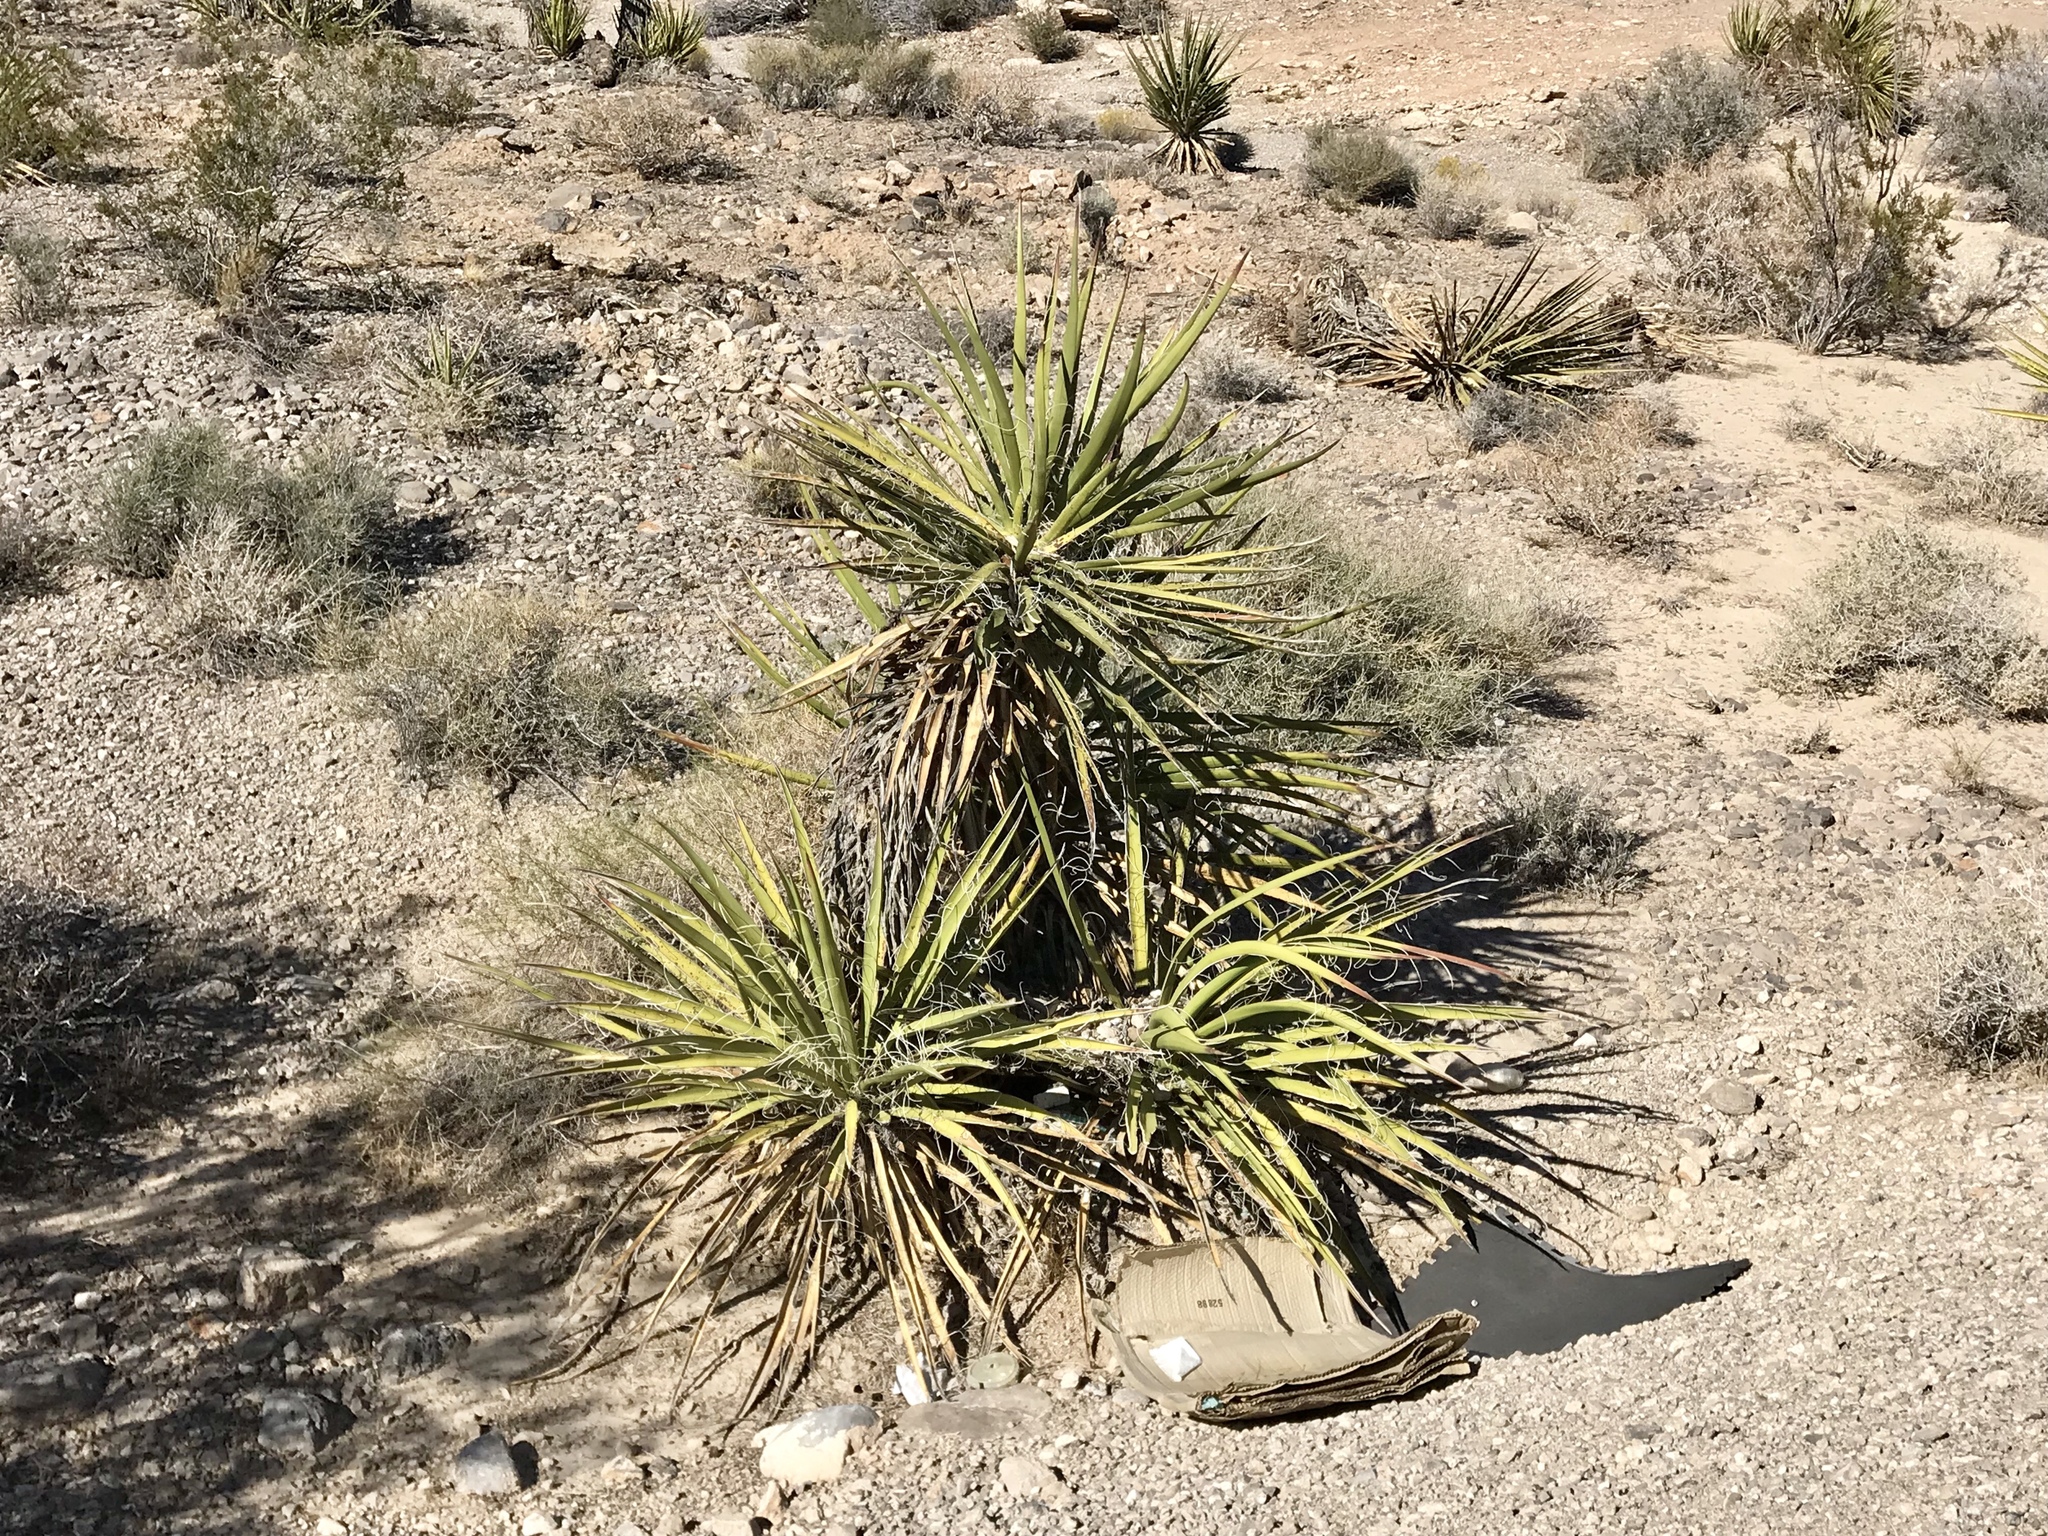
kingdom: Plantae
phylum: Tracheophyta
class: Liliopsida
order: Asparagales
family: Asparagaceae
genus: Yucca
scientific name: Yucca schidigera
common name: Mojave yucca
